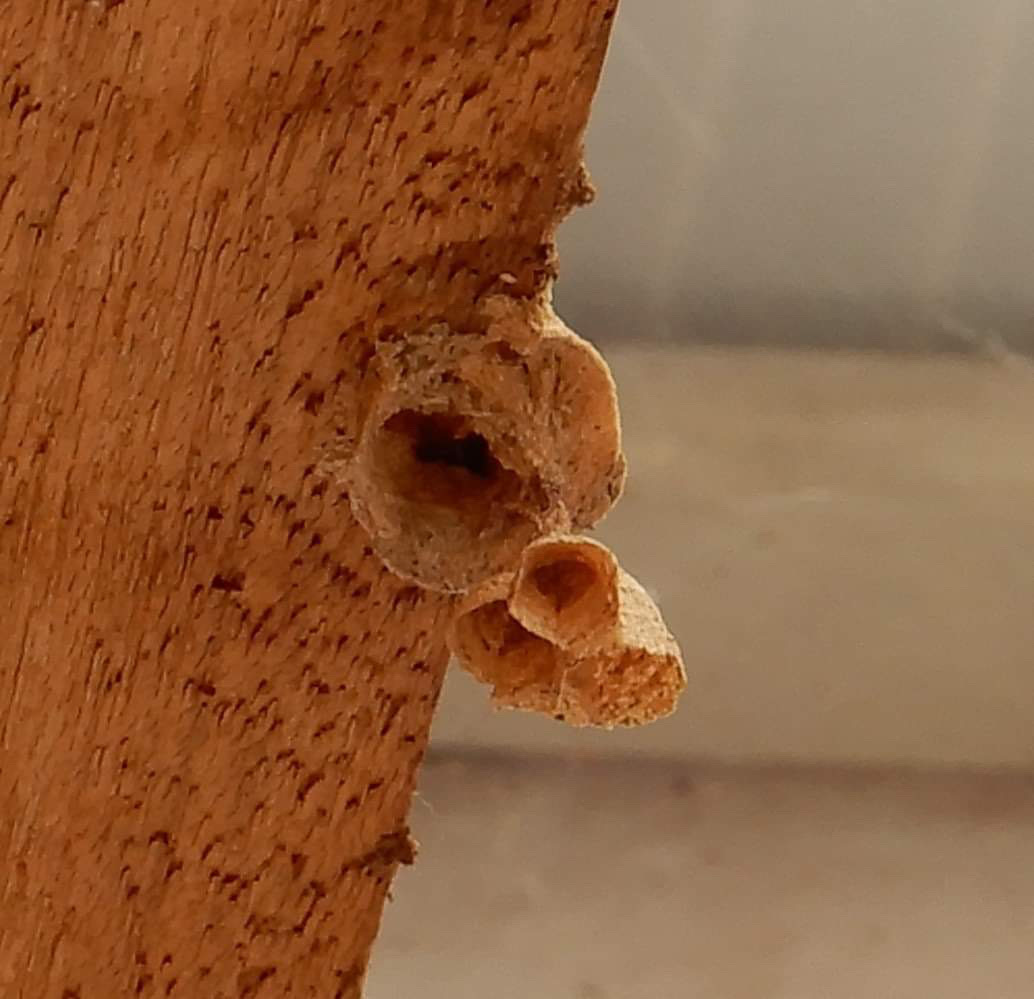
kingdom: Animalia
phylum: Arthropoda
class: Insecta
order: Hymenoptera
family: Vespidae
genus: Vespa
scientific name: Vespa velutina
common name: Asian hornet
